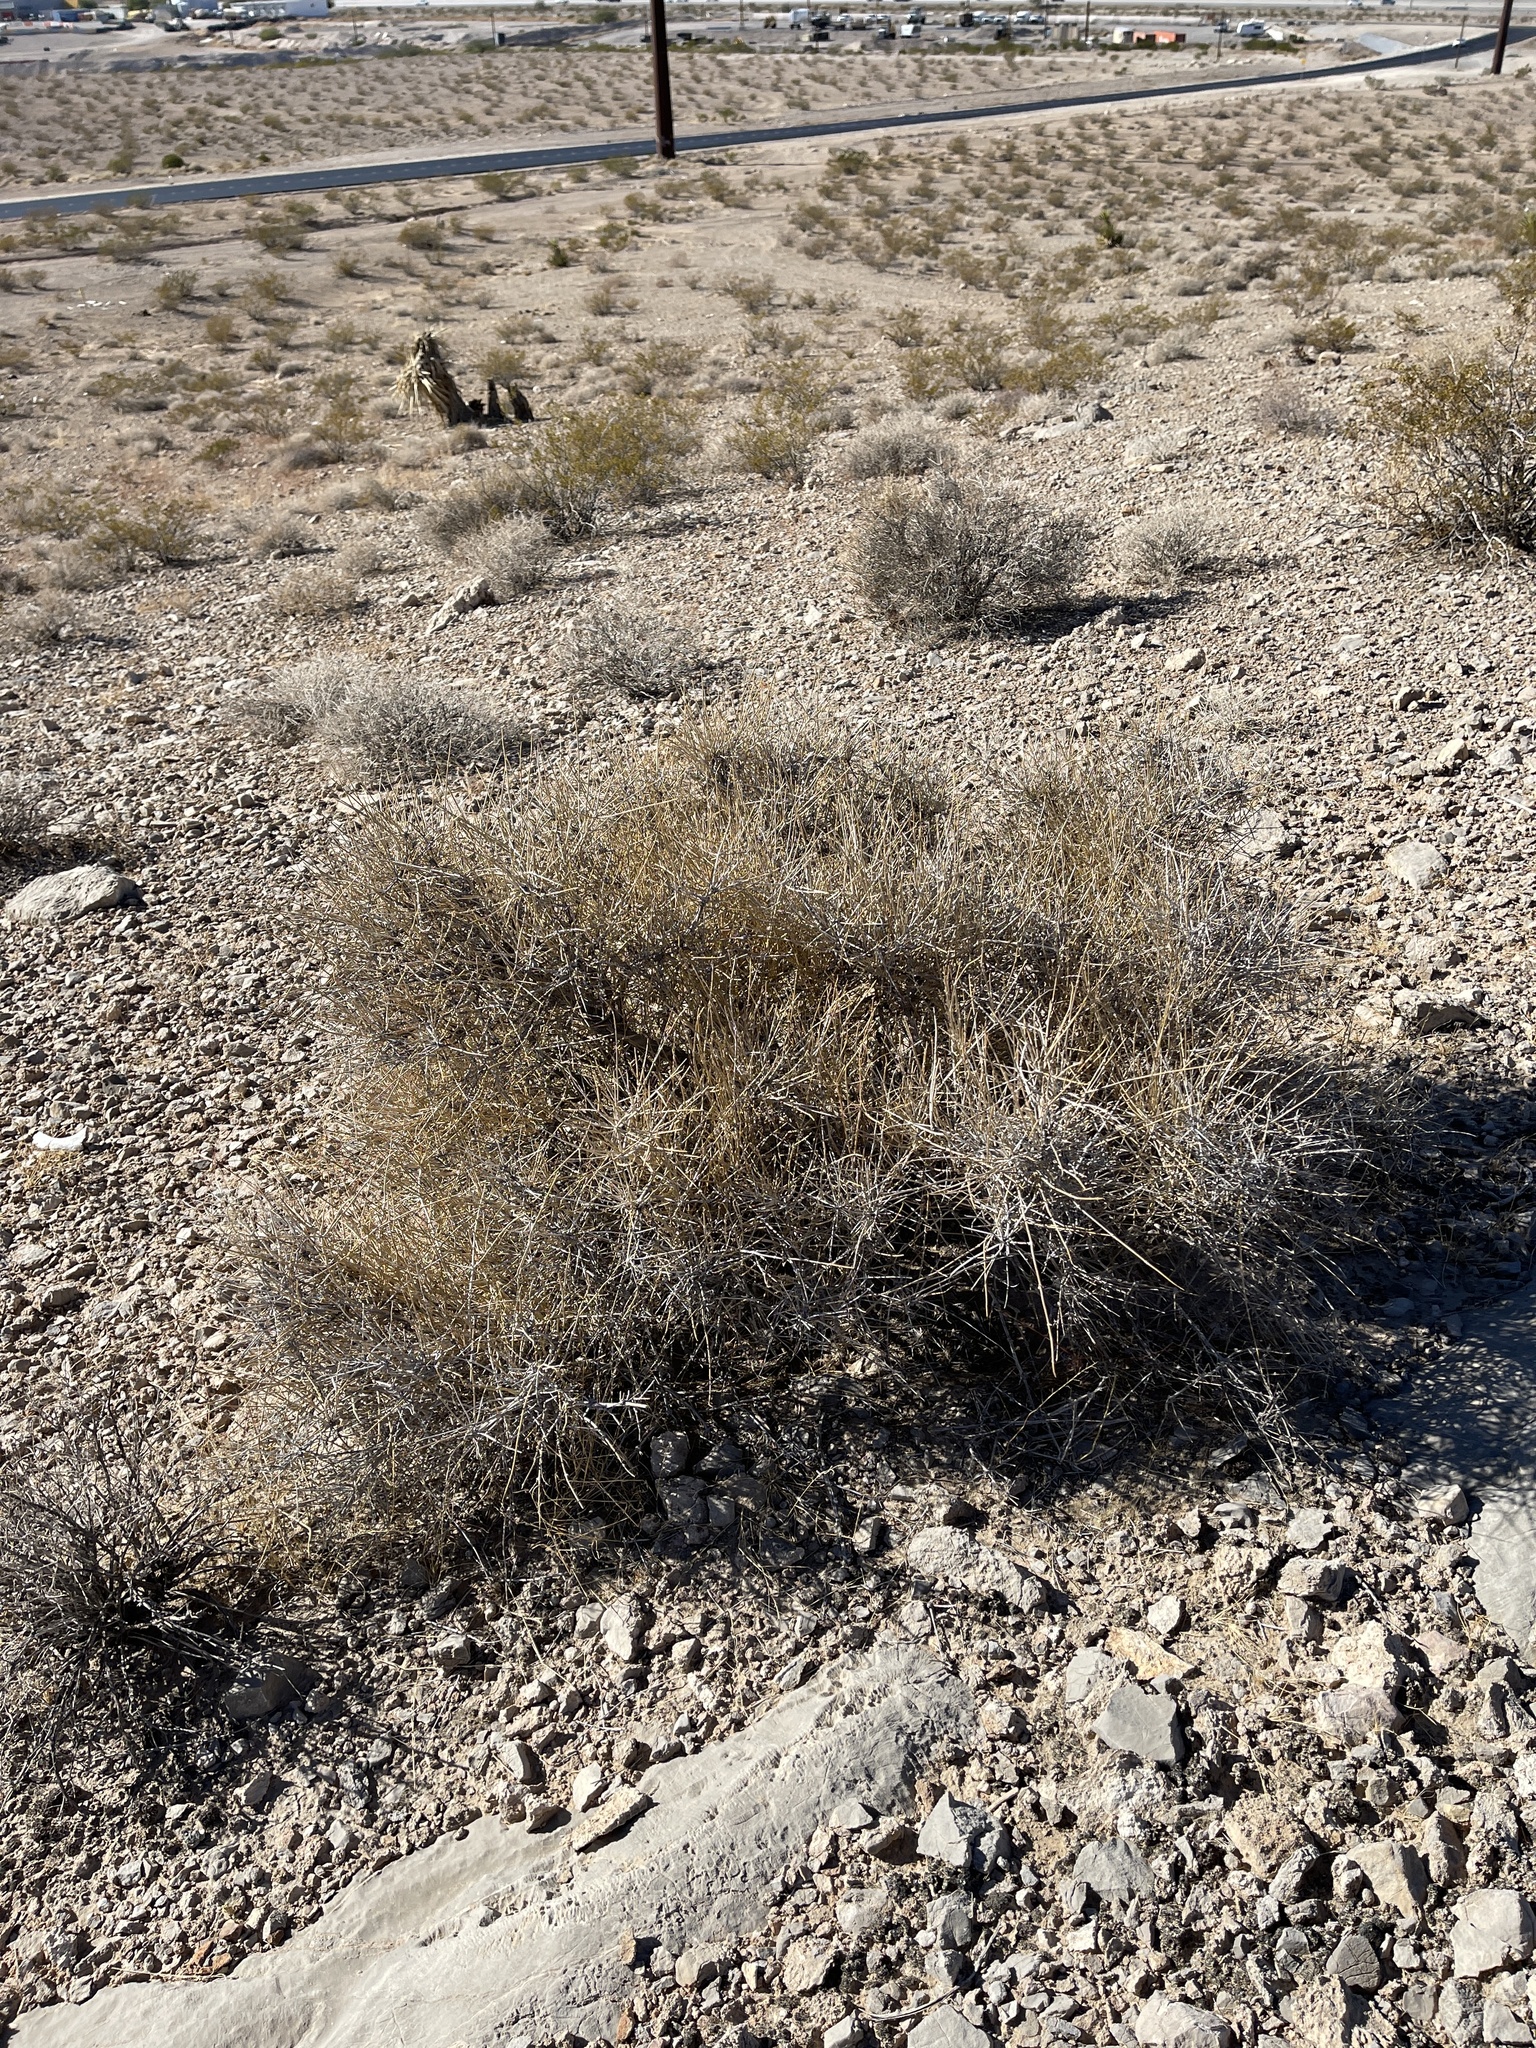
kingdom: Plantae
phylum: Tracheophyta
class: Gnetopsida
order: Ephedrales
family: Ephedraceae
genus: Ephedra
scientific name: Ephedra nevadensis
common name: Gray ephedra
